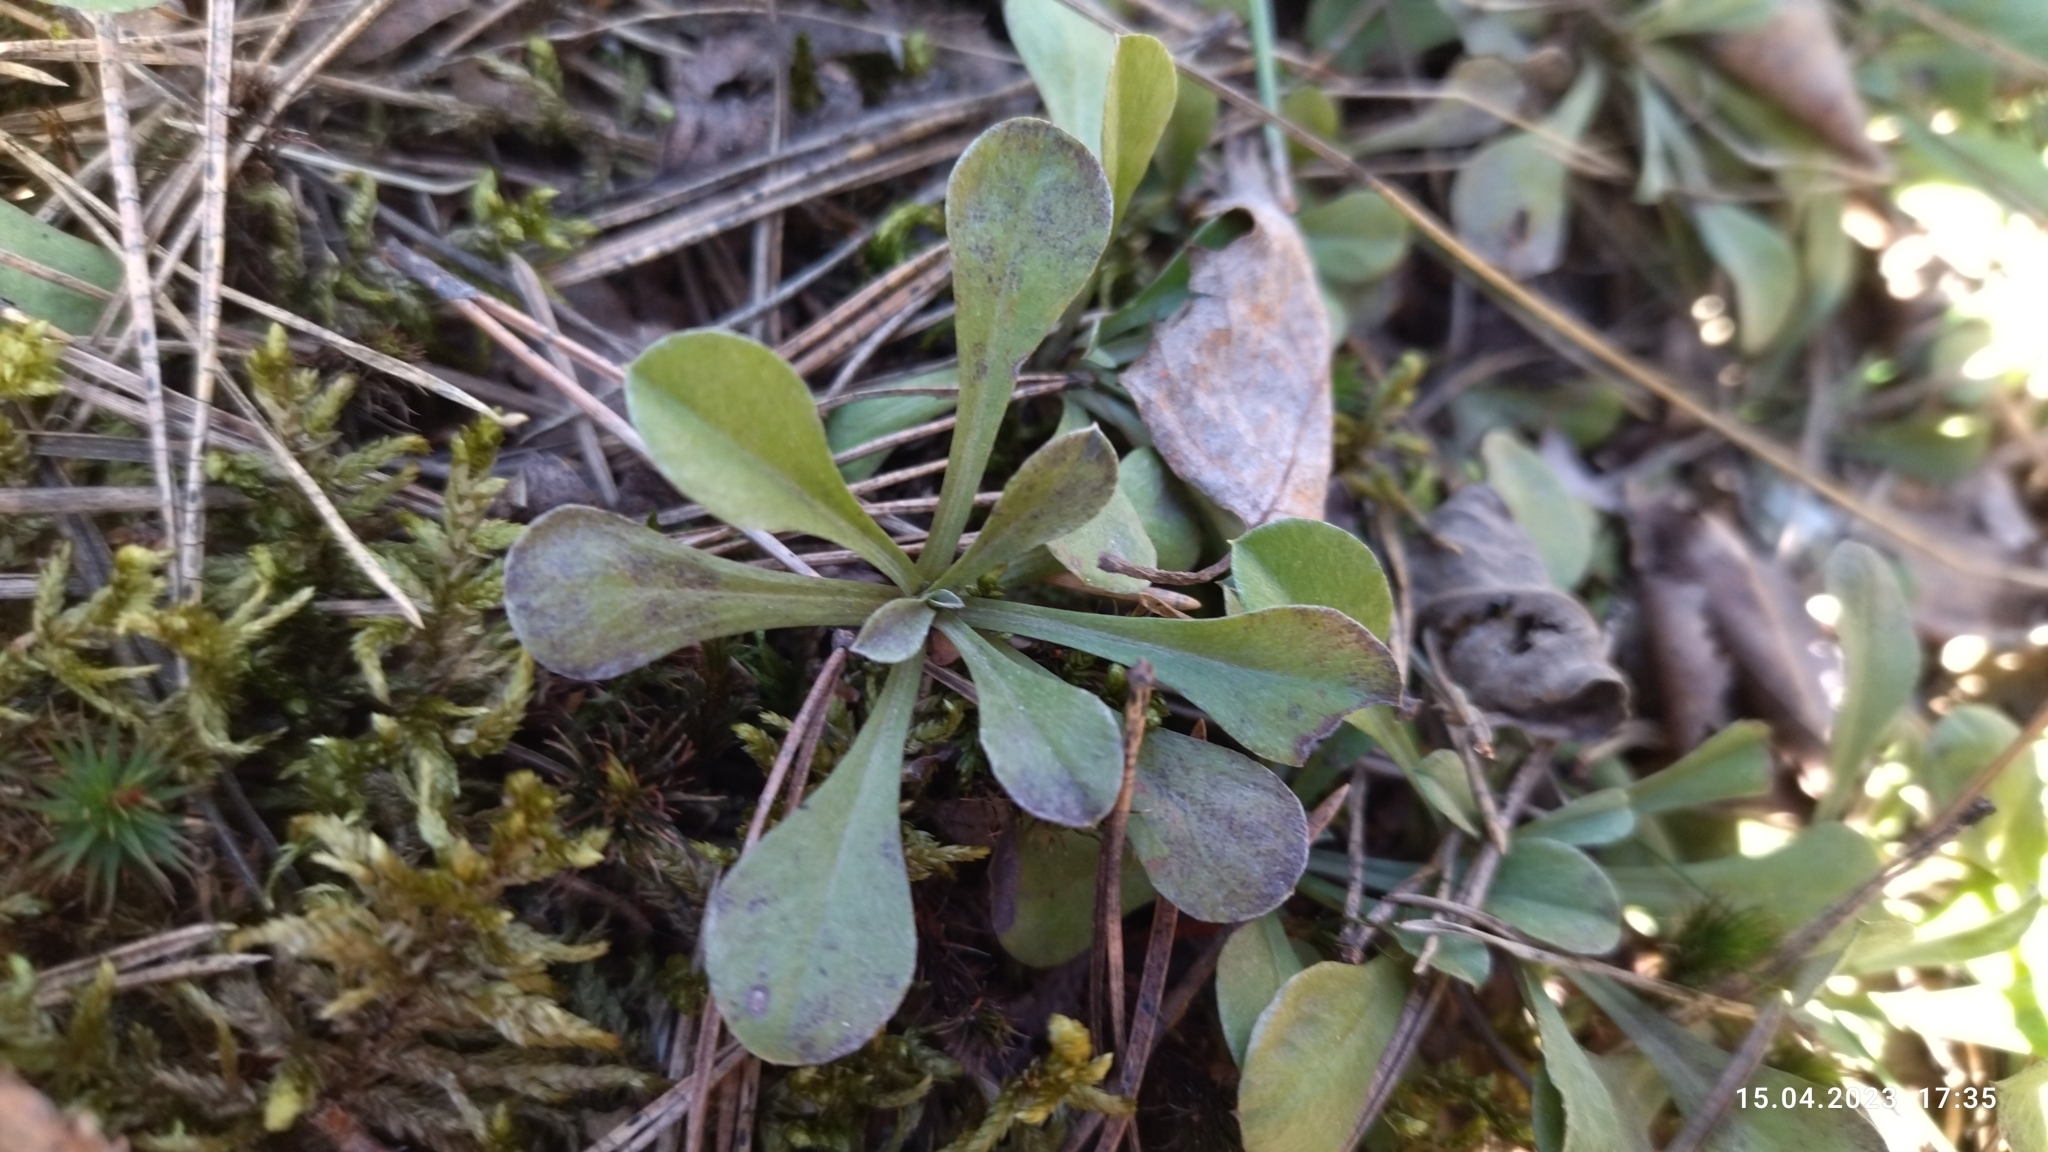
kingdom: Plantae
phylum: Tracheophyta
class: Magnoliopsida
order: Asterales
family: Asteraceae
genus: Antennaria
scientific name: Antennaria dioica
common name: Mountain everlasting
